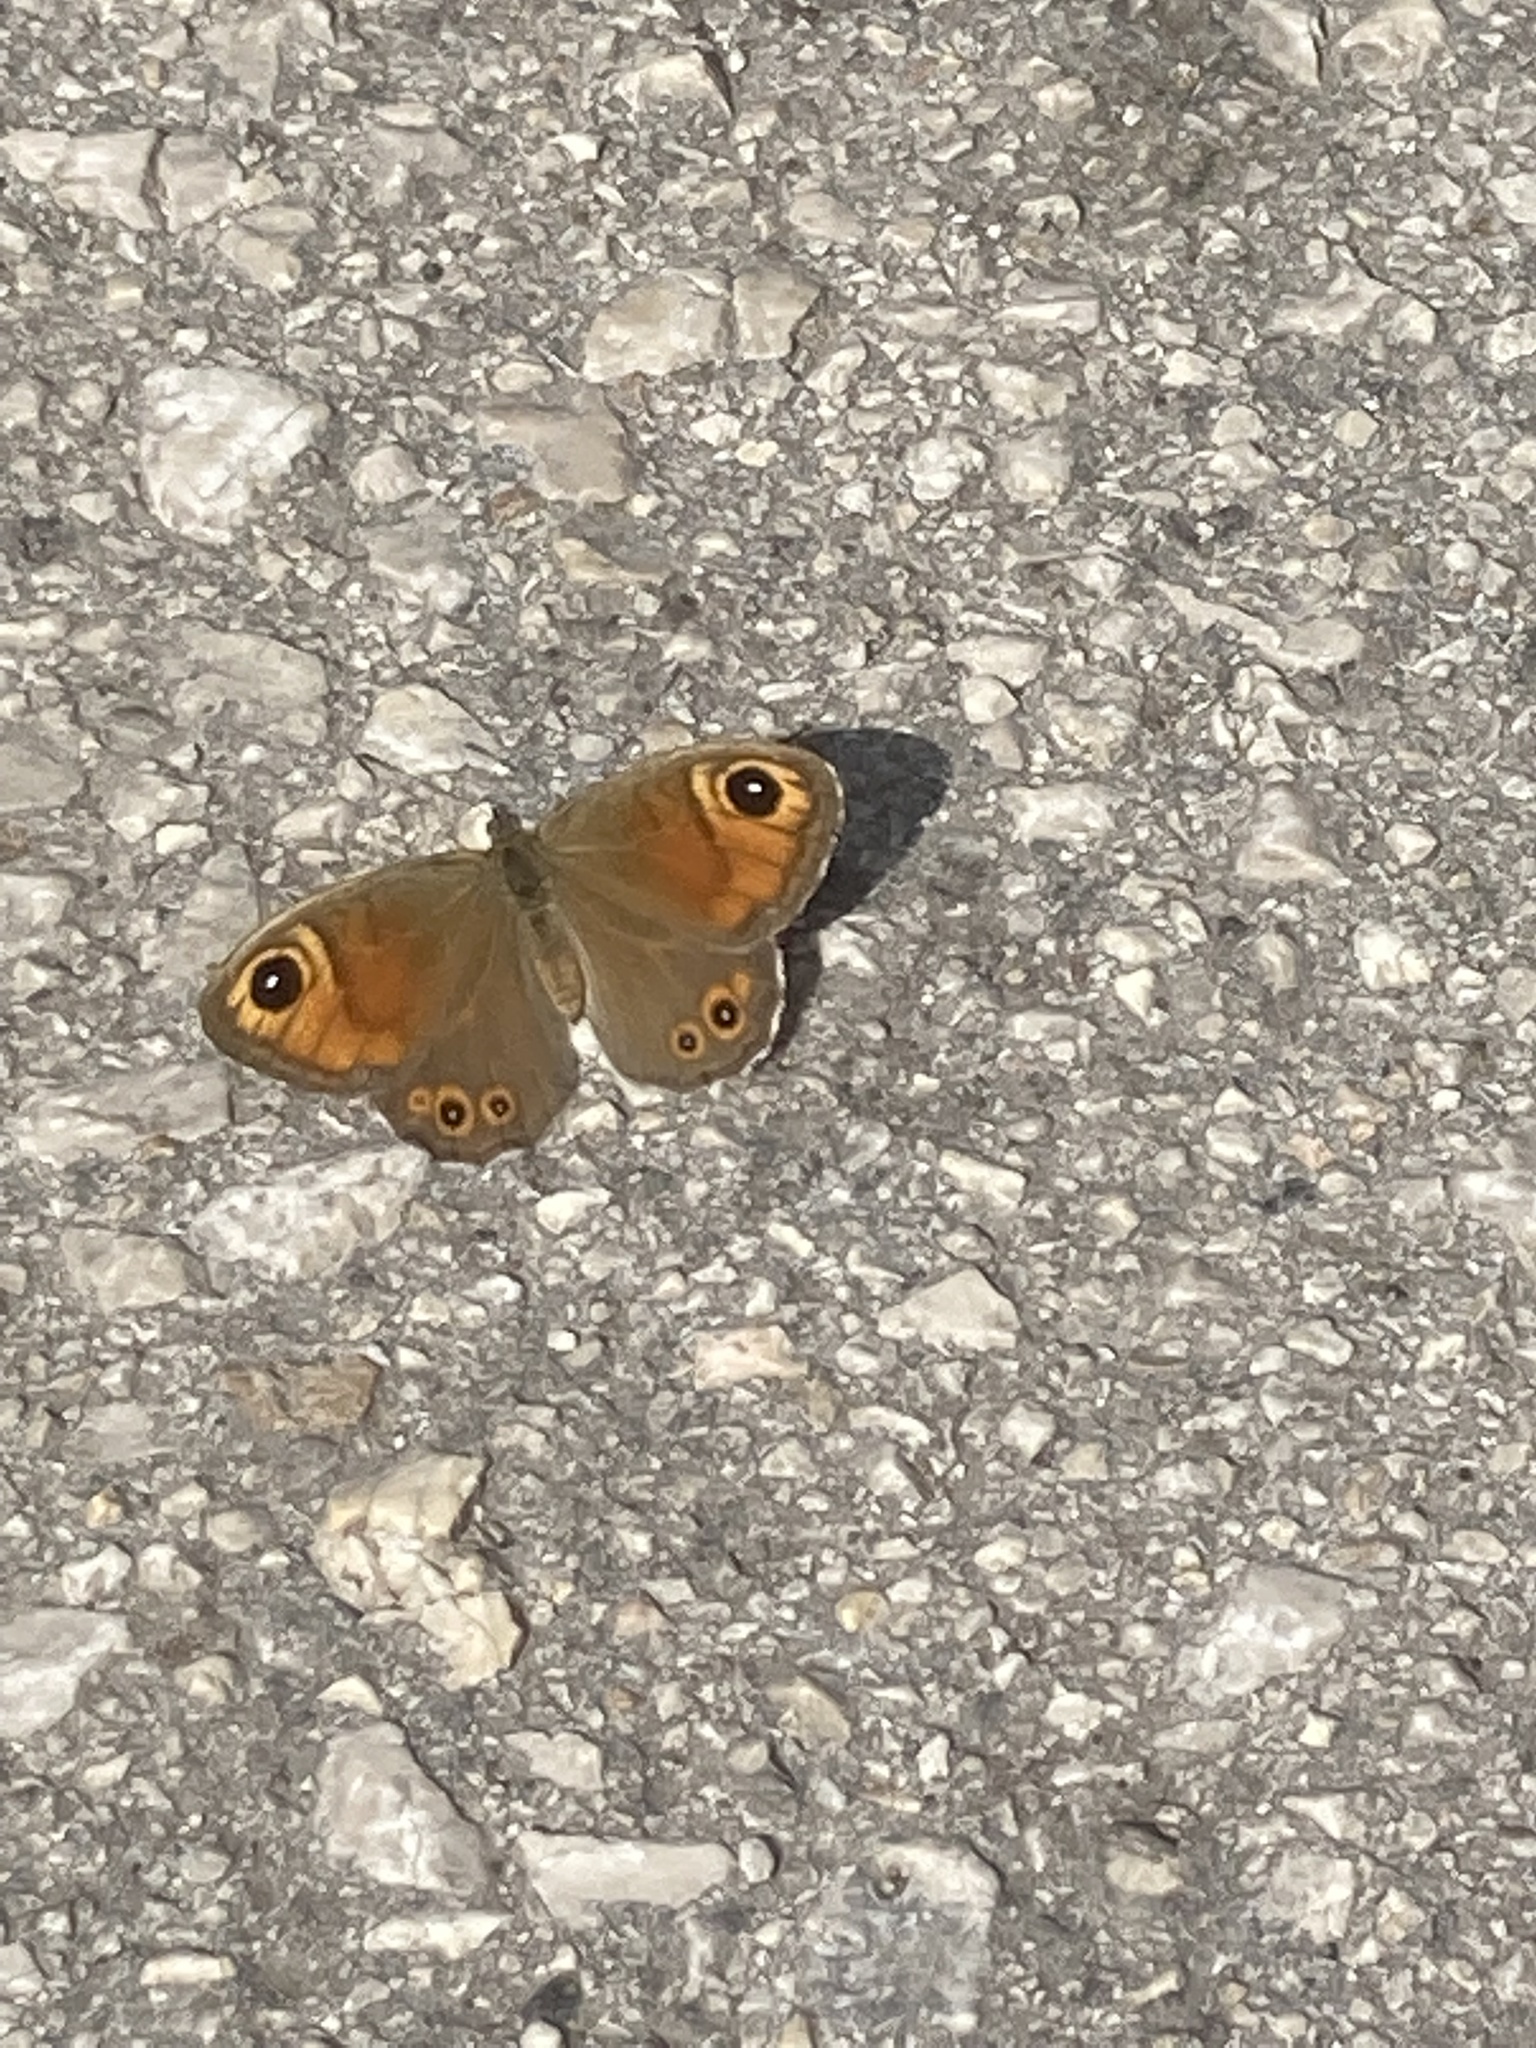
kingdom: Animalia
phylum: Arthropoda
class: Insecta
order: Lepidoptera
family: Nymphalidae
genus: Pararge
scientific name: Pararge Lasiommata maera
